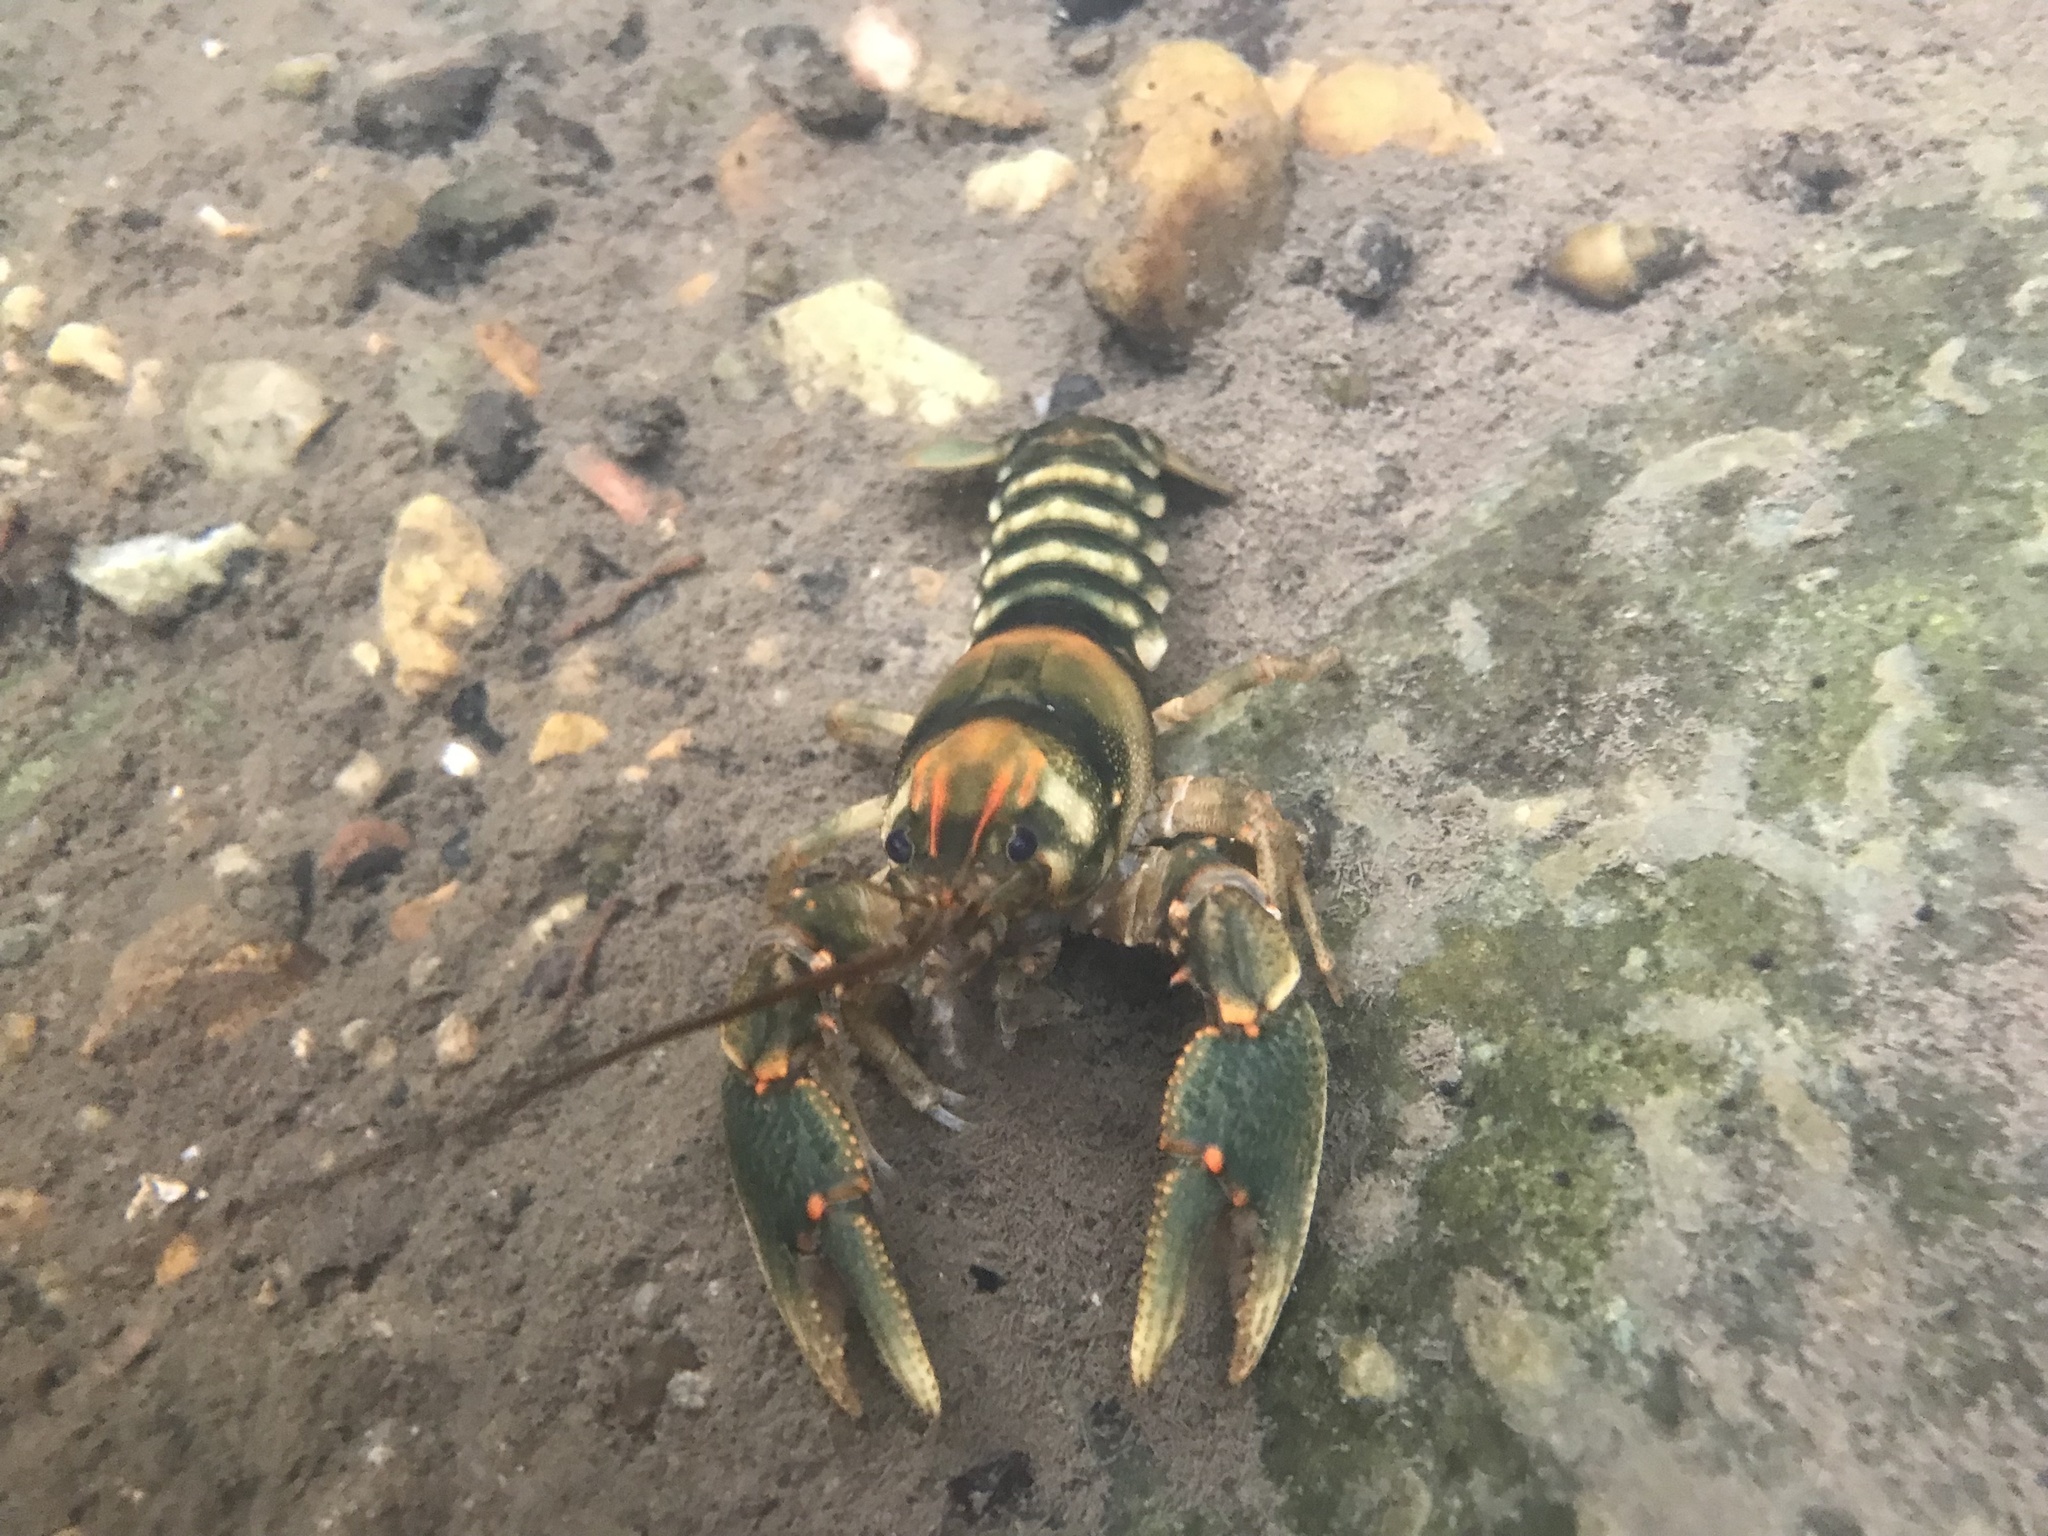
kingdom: Animalia
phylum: Arthropoda
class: Malacostraca
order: Decapoda
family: Cambaridae
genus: Cambarus
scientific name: Cambarus coosae
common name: Coosa crayfish
